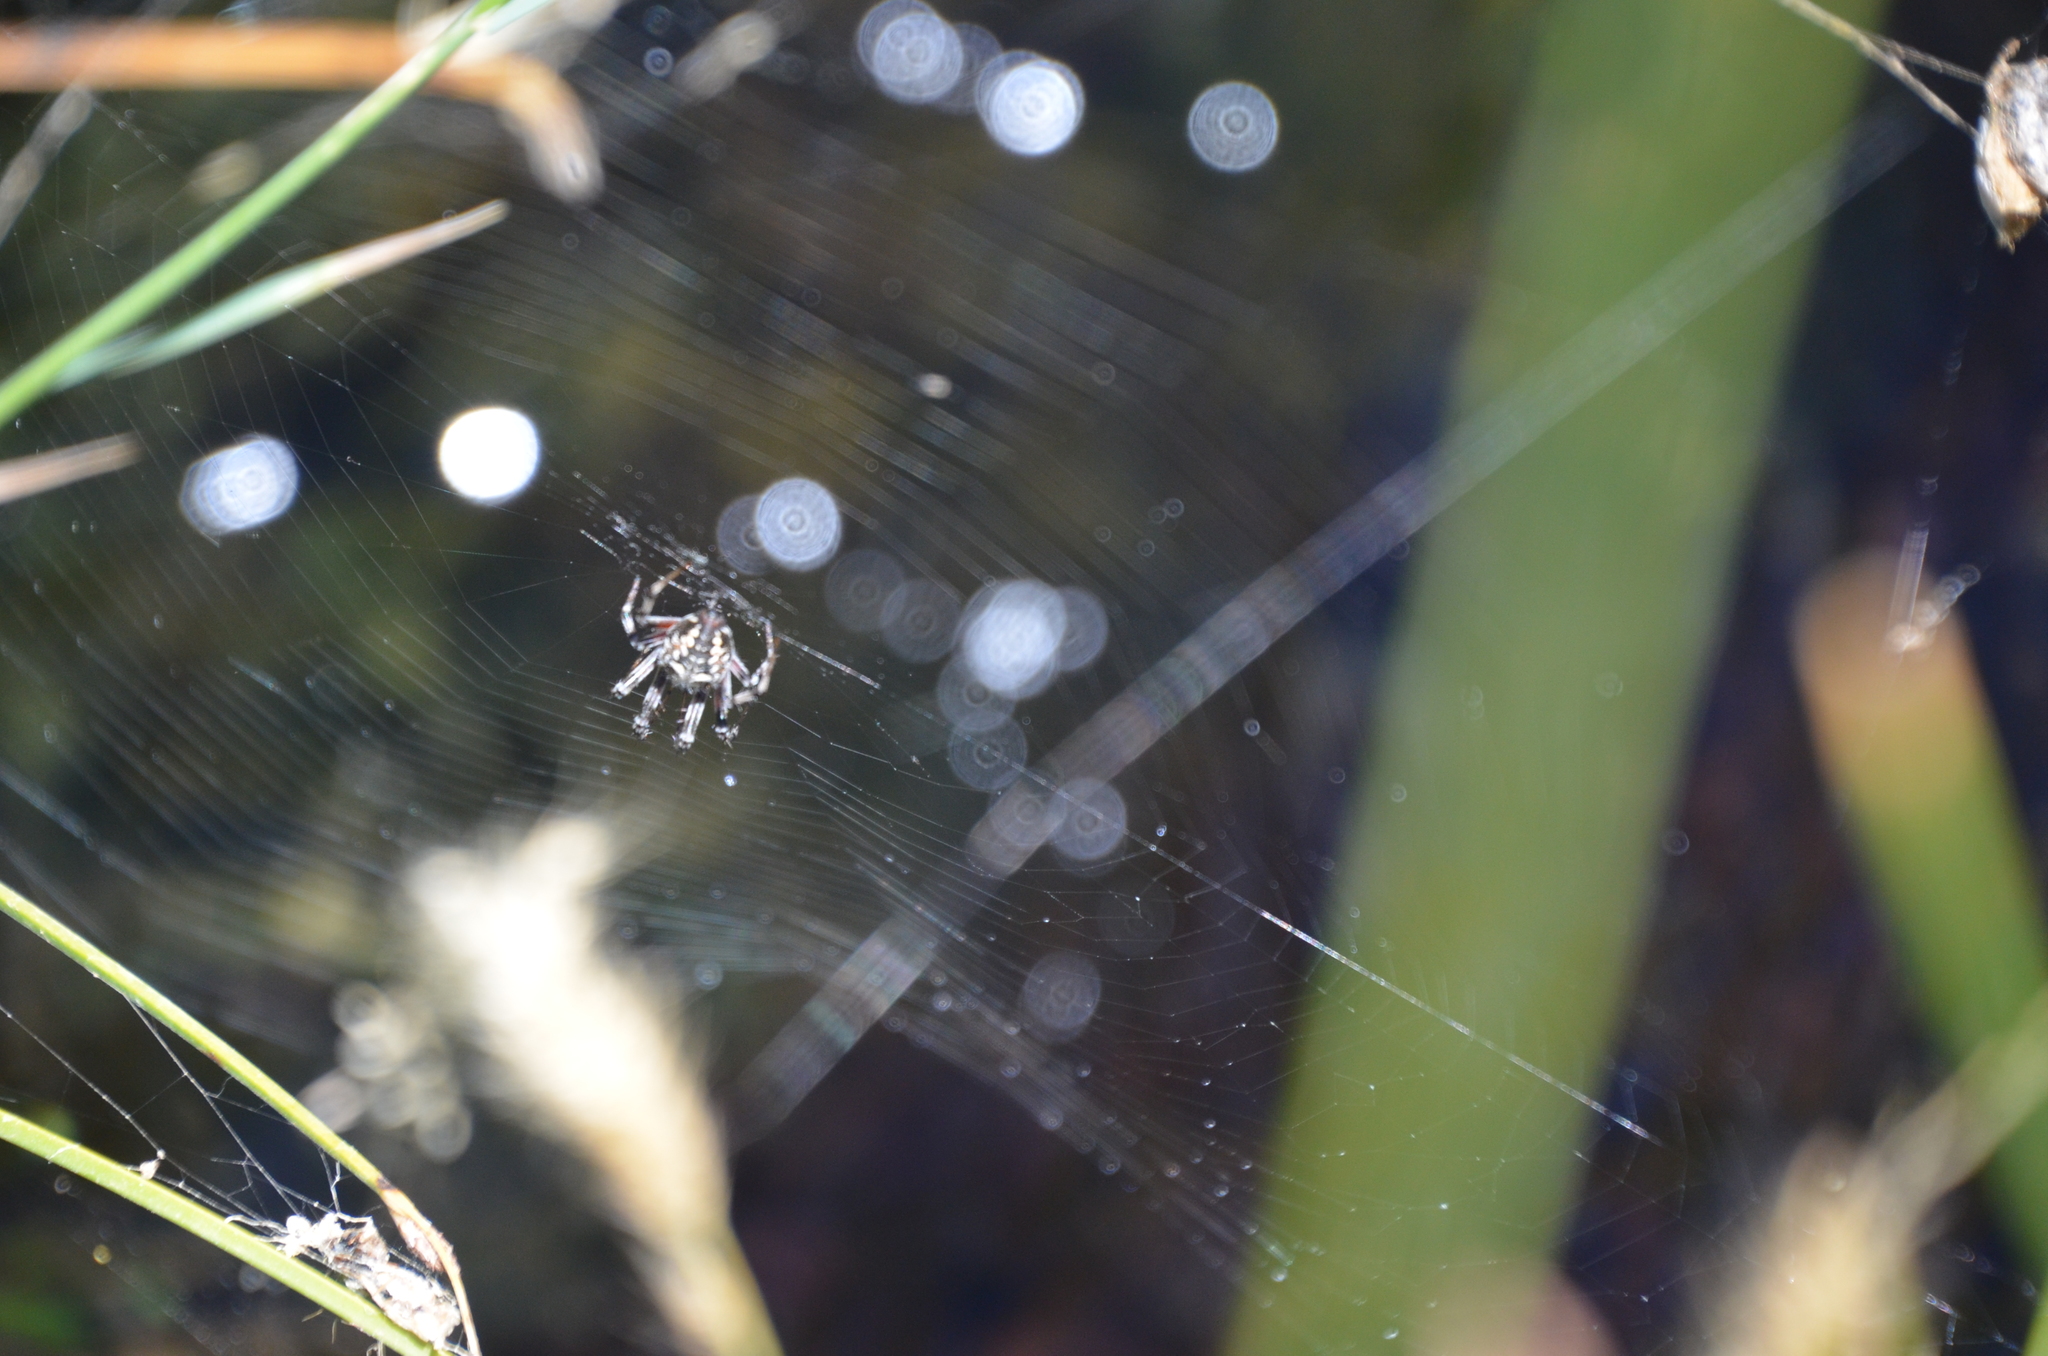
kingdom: Animalia
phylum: Arthropoda
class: Arachnida
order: Araneae
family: Araneidae
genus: Metepeira
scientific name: Metepeira
